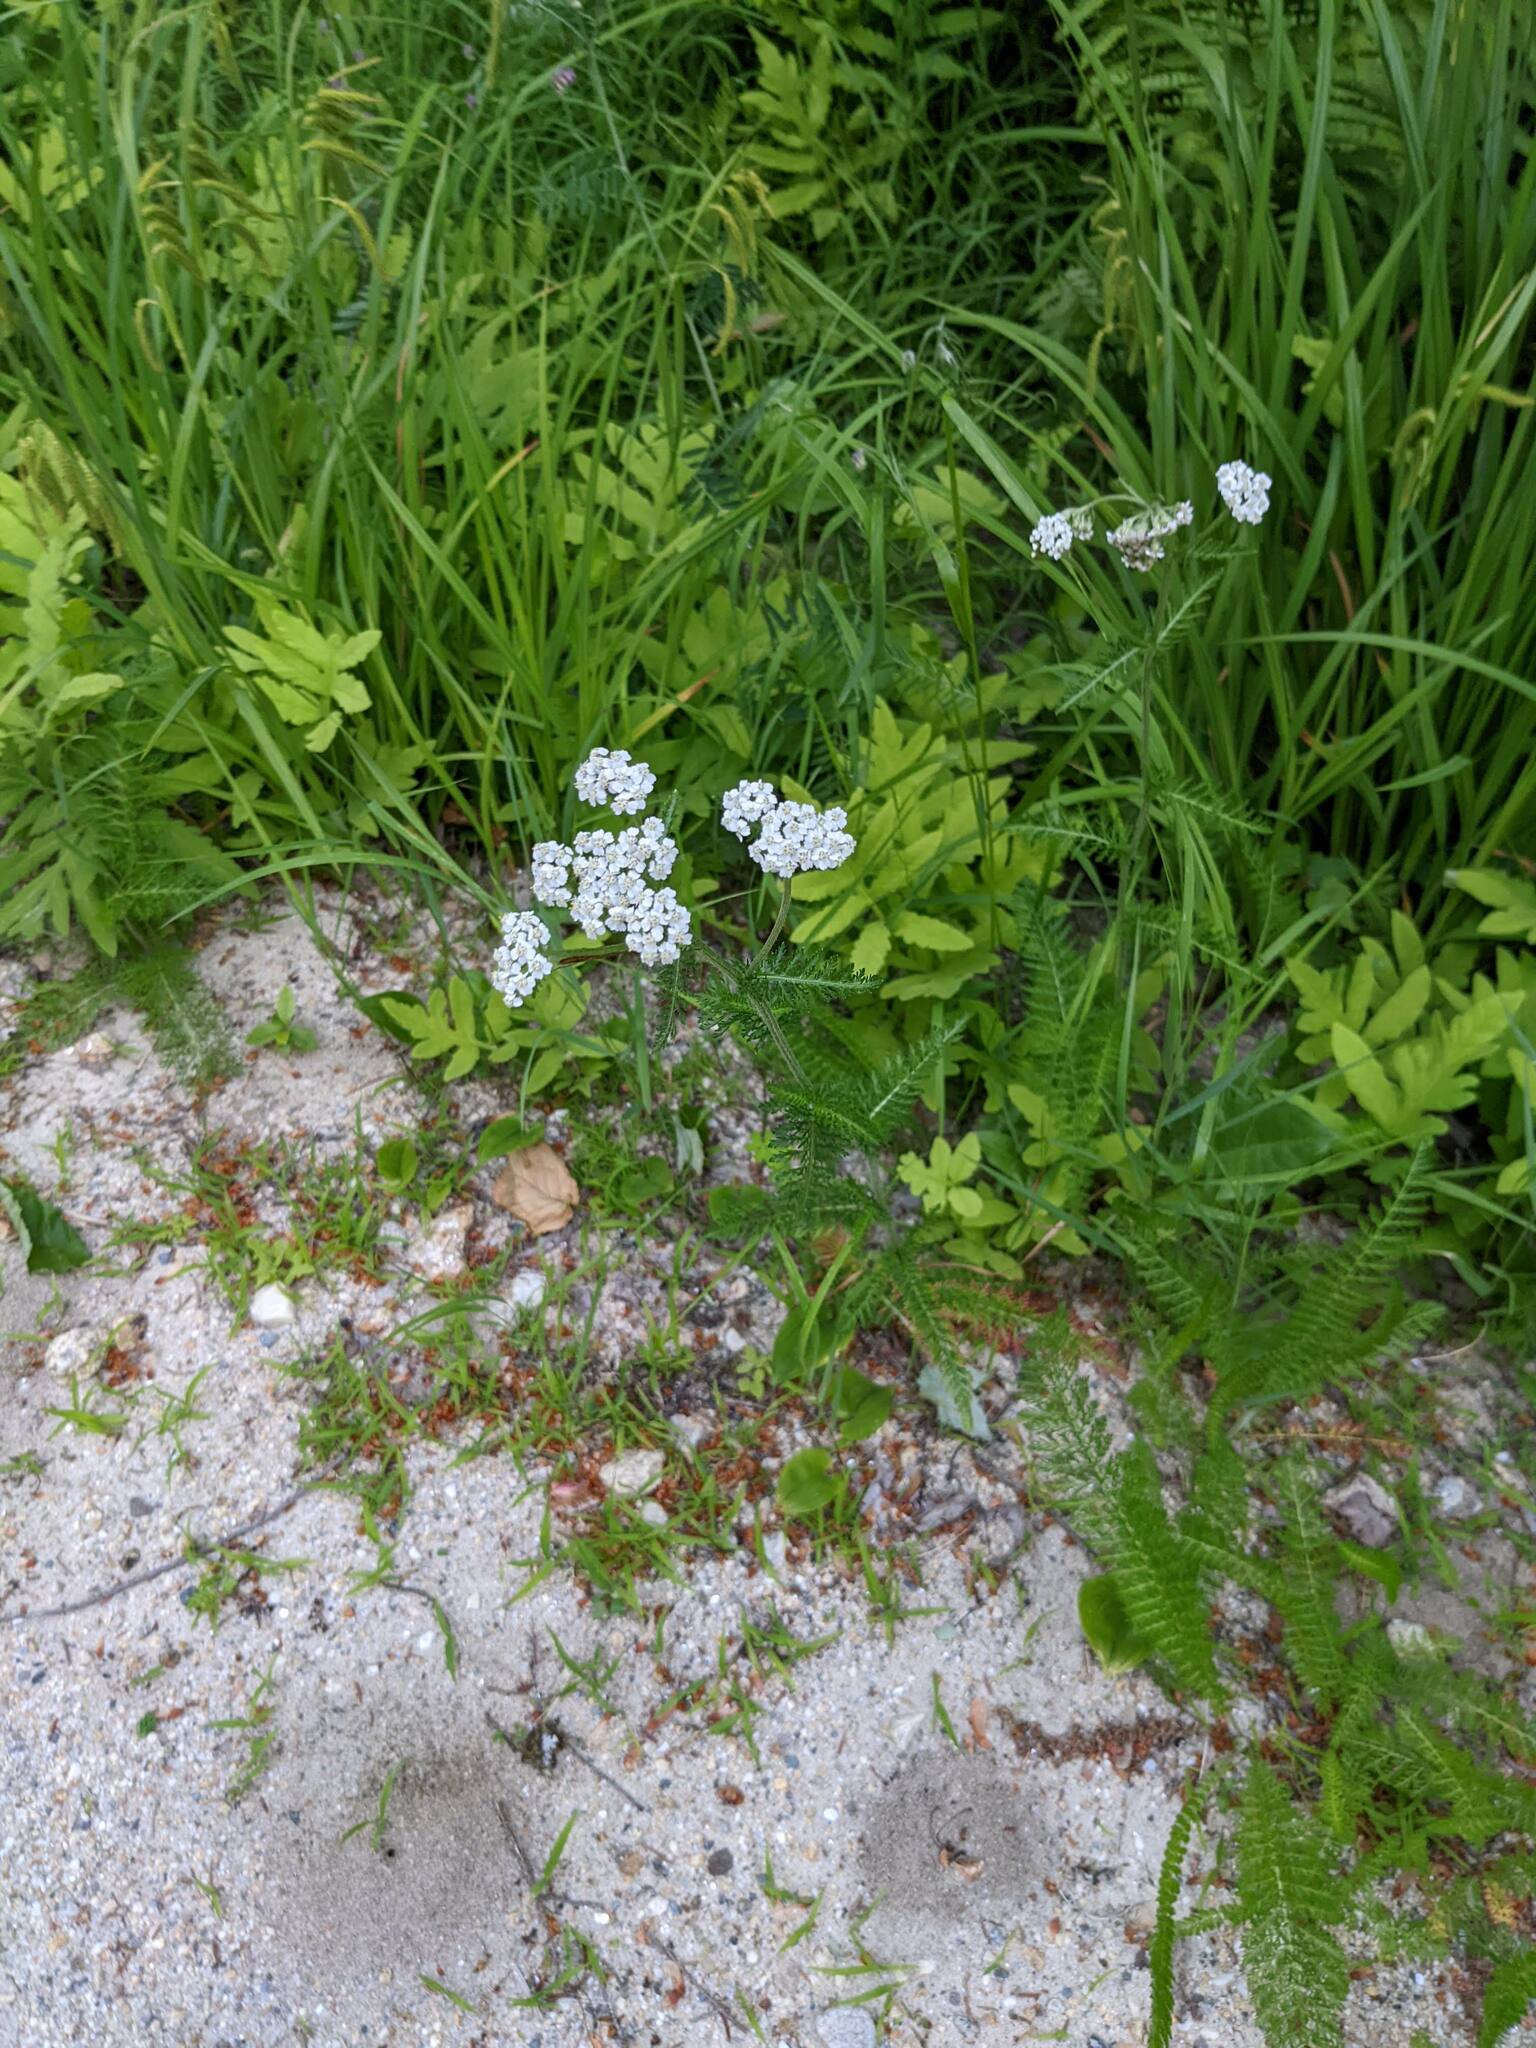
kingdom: Plantae
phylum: Tracheophyta
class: Magnoliopsida
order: Asterales
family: Asteraceae
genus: Achillea
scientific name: Achillea millefolium
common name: Yarrow
